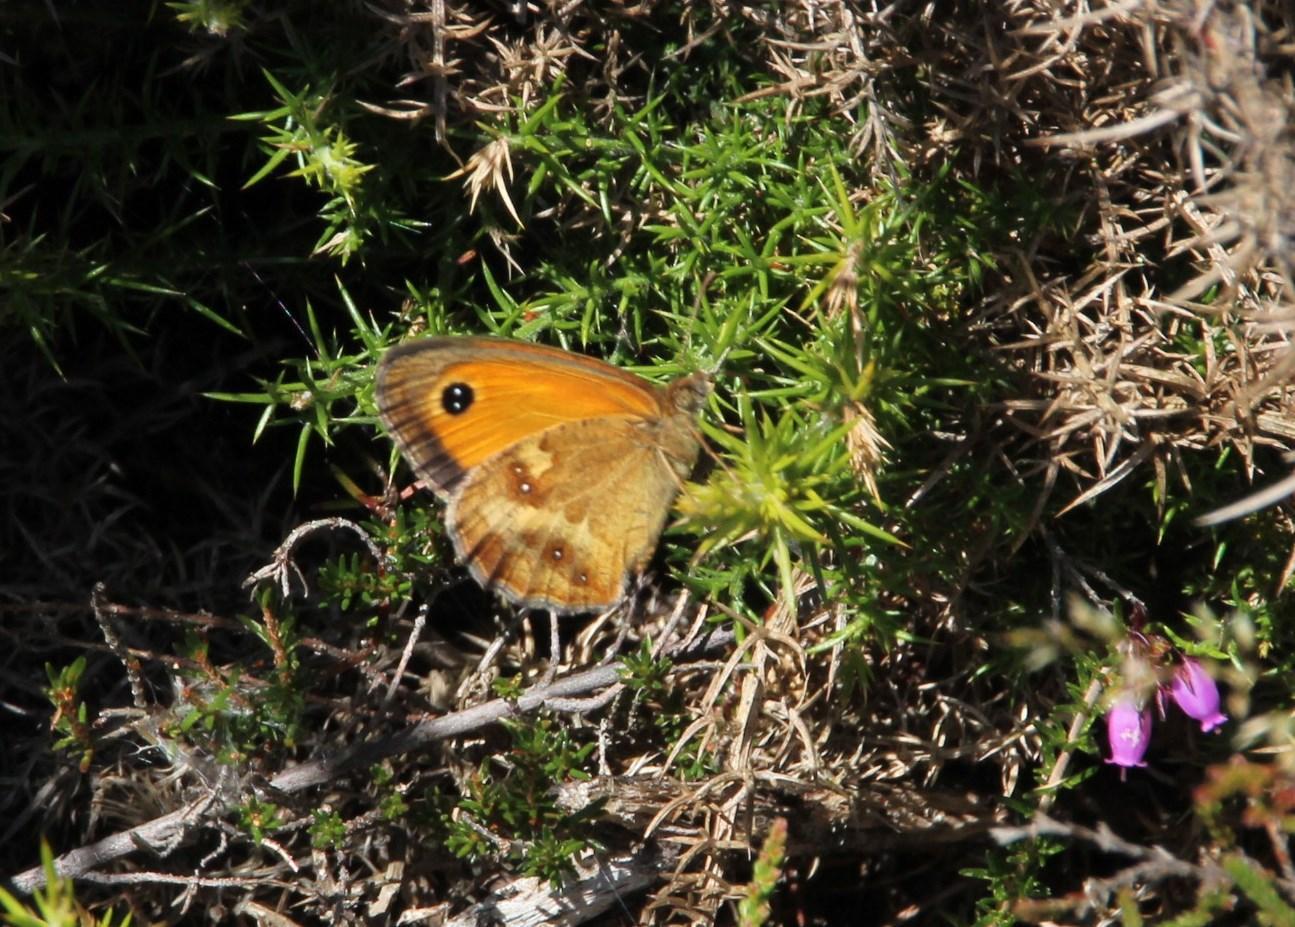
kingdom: Animalia
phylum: Arthropoda
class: Insecta
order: Lepidoptera
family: Nymphalidae
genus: Pyronia
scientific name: Pyronia tithonus
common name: Gatekeeper
